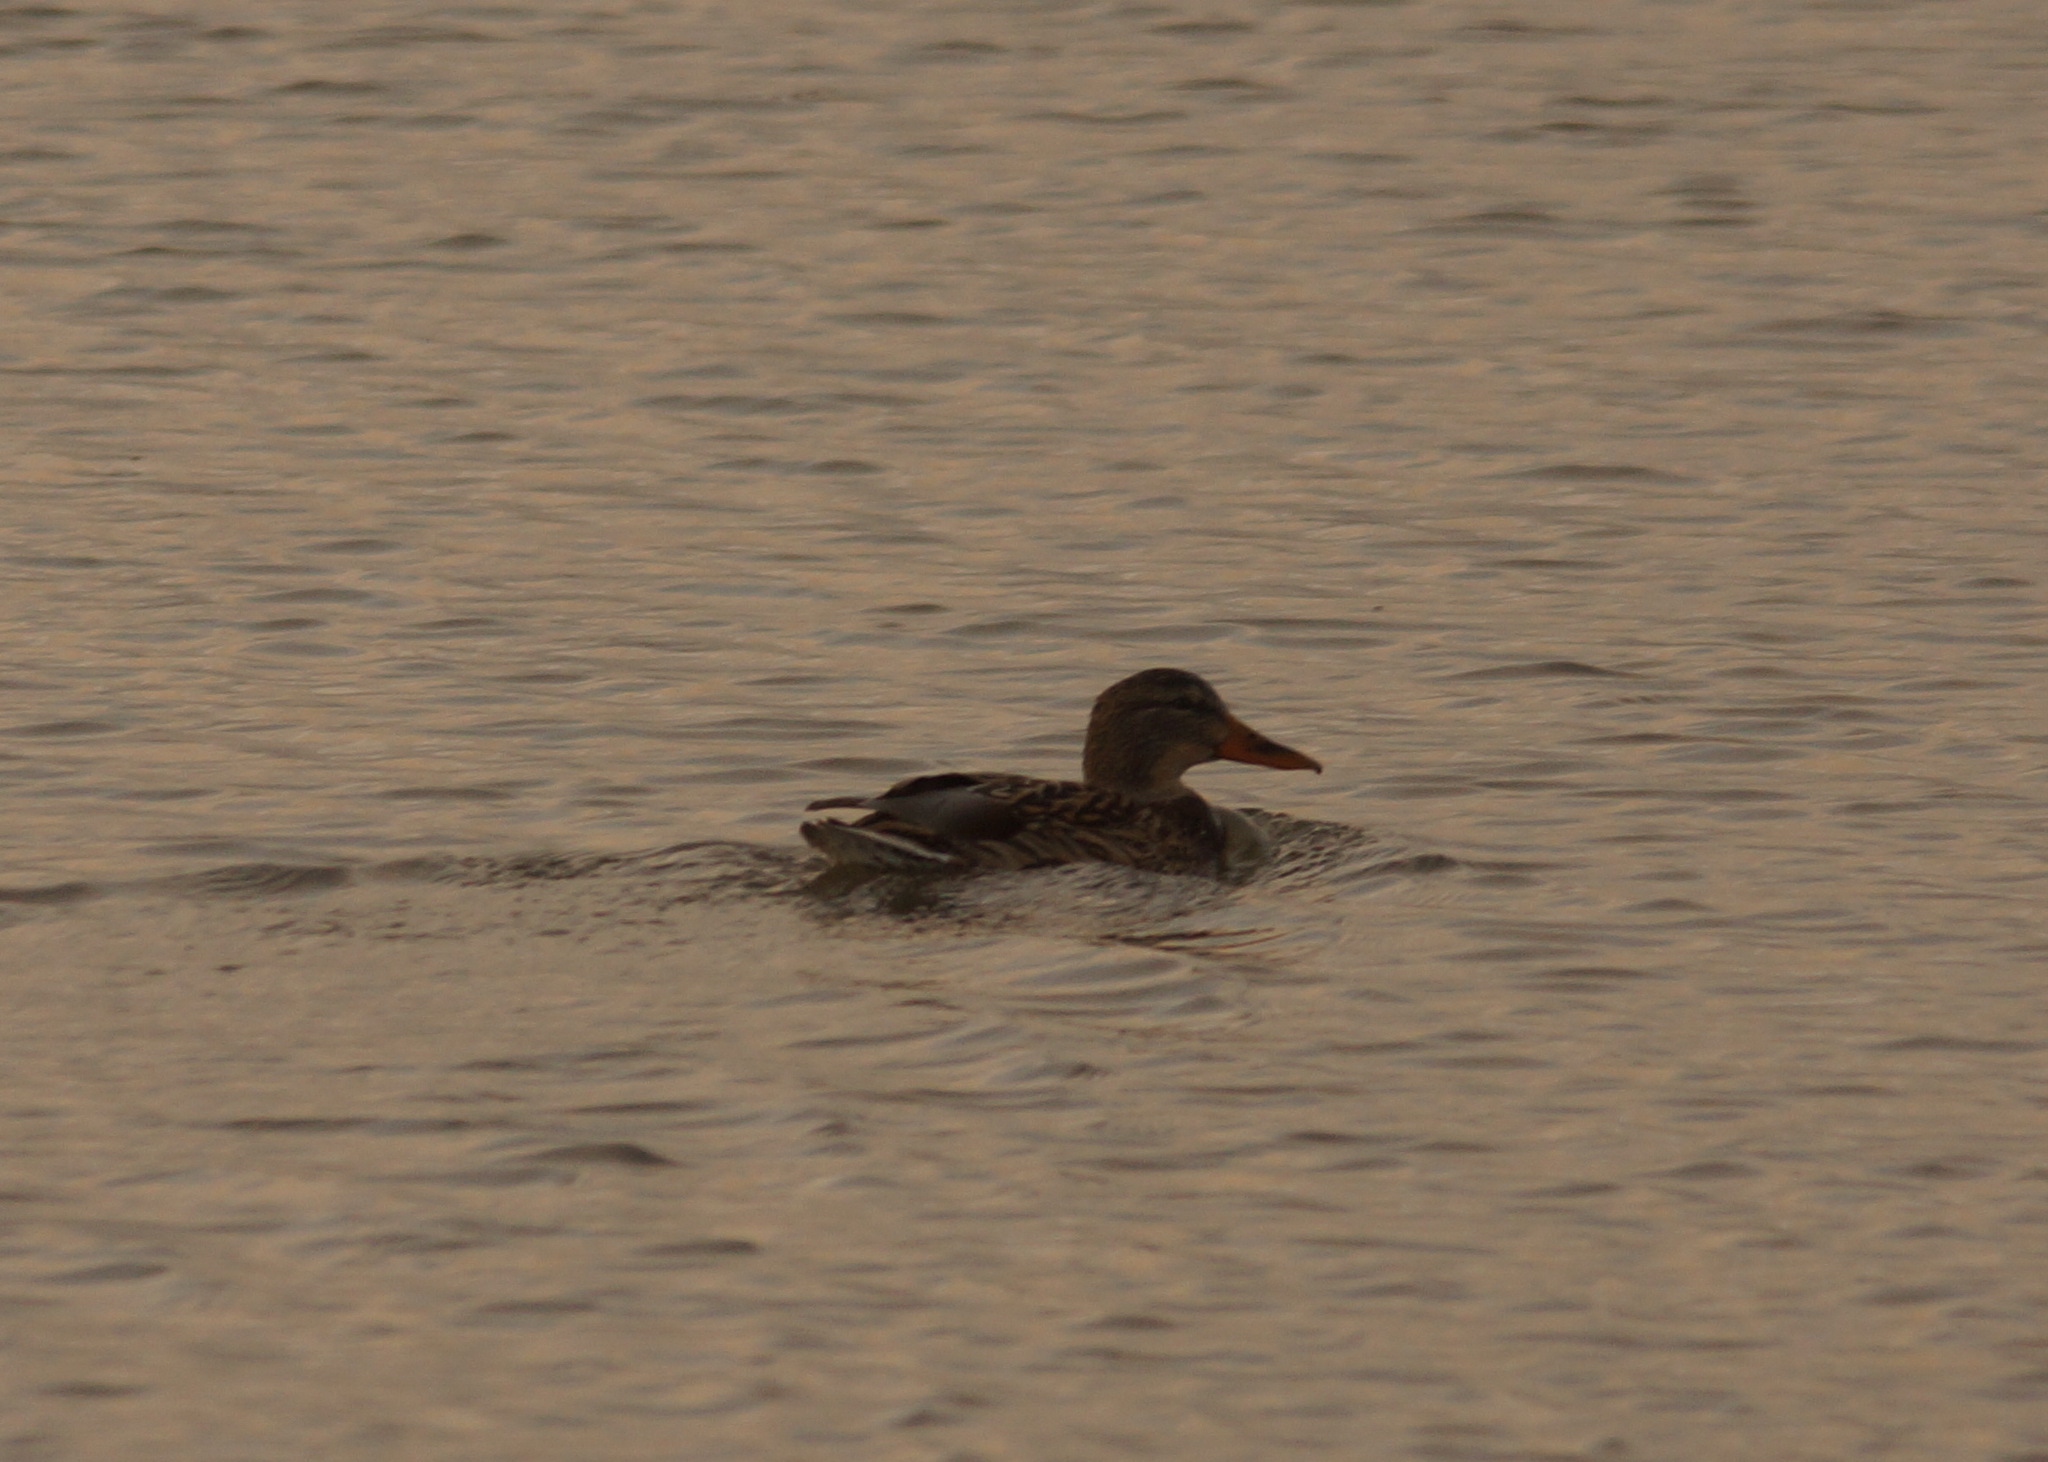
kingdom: Animalia
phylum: Chordata
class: Aves
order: Anseriformes
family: Anatidae
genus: Anas
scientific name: Anas platyrhynchos
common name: Mallard
